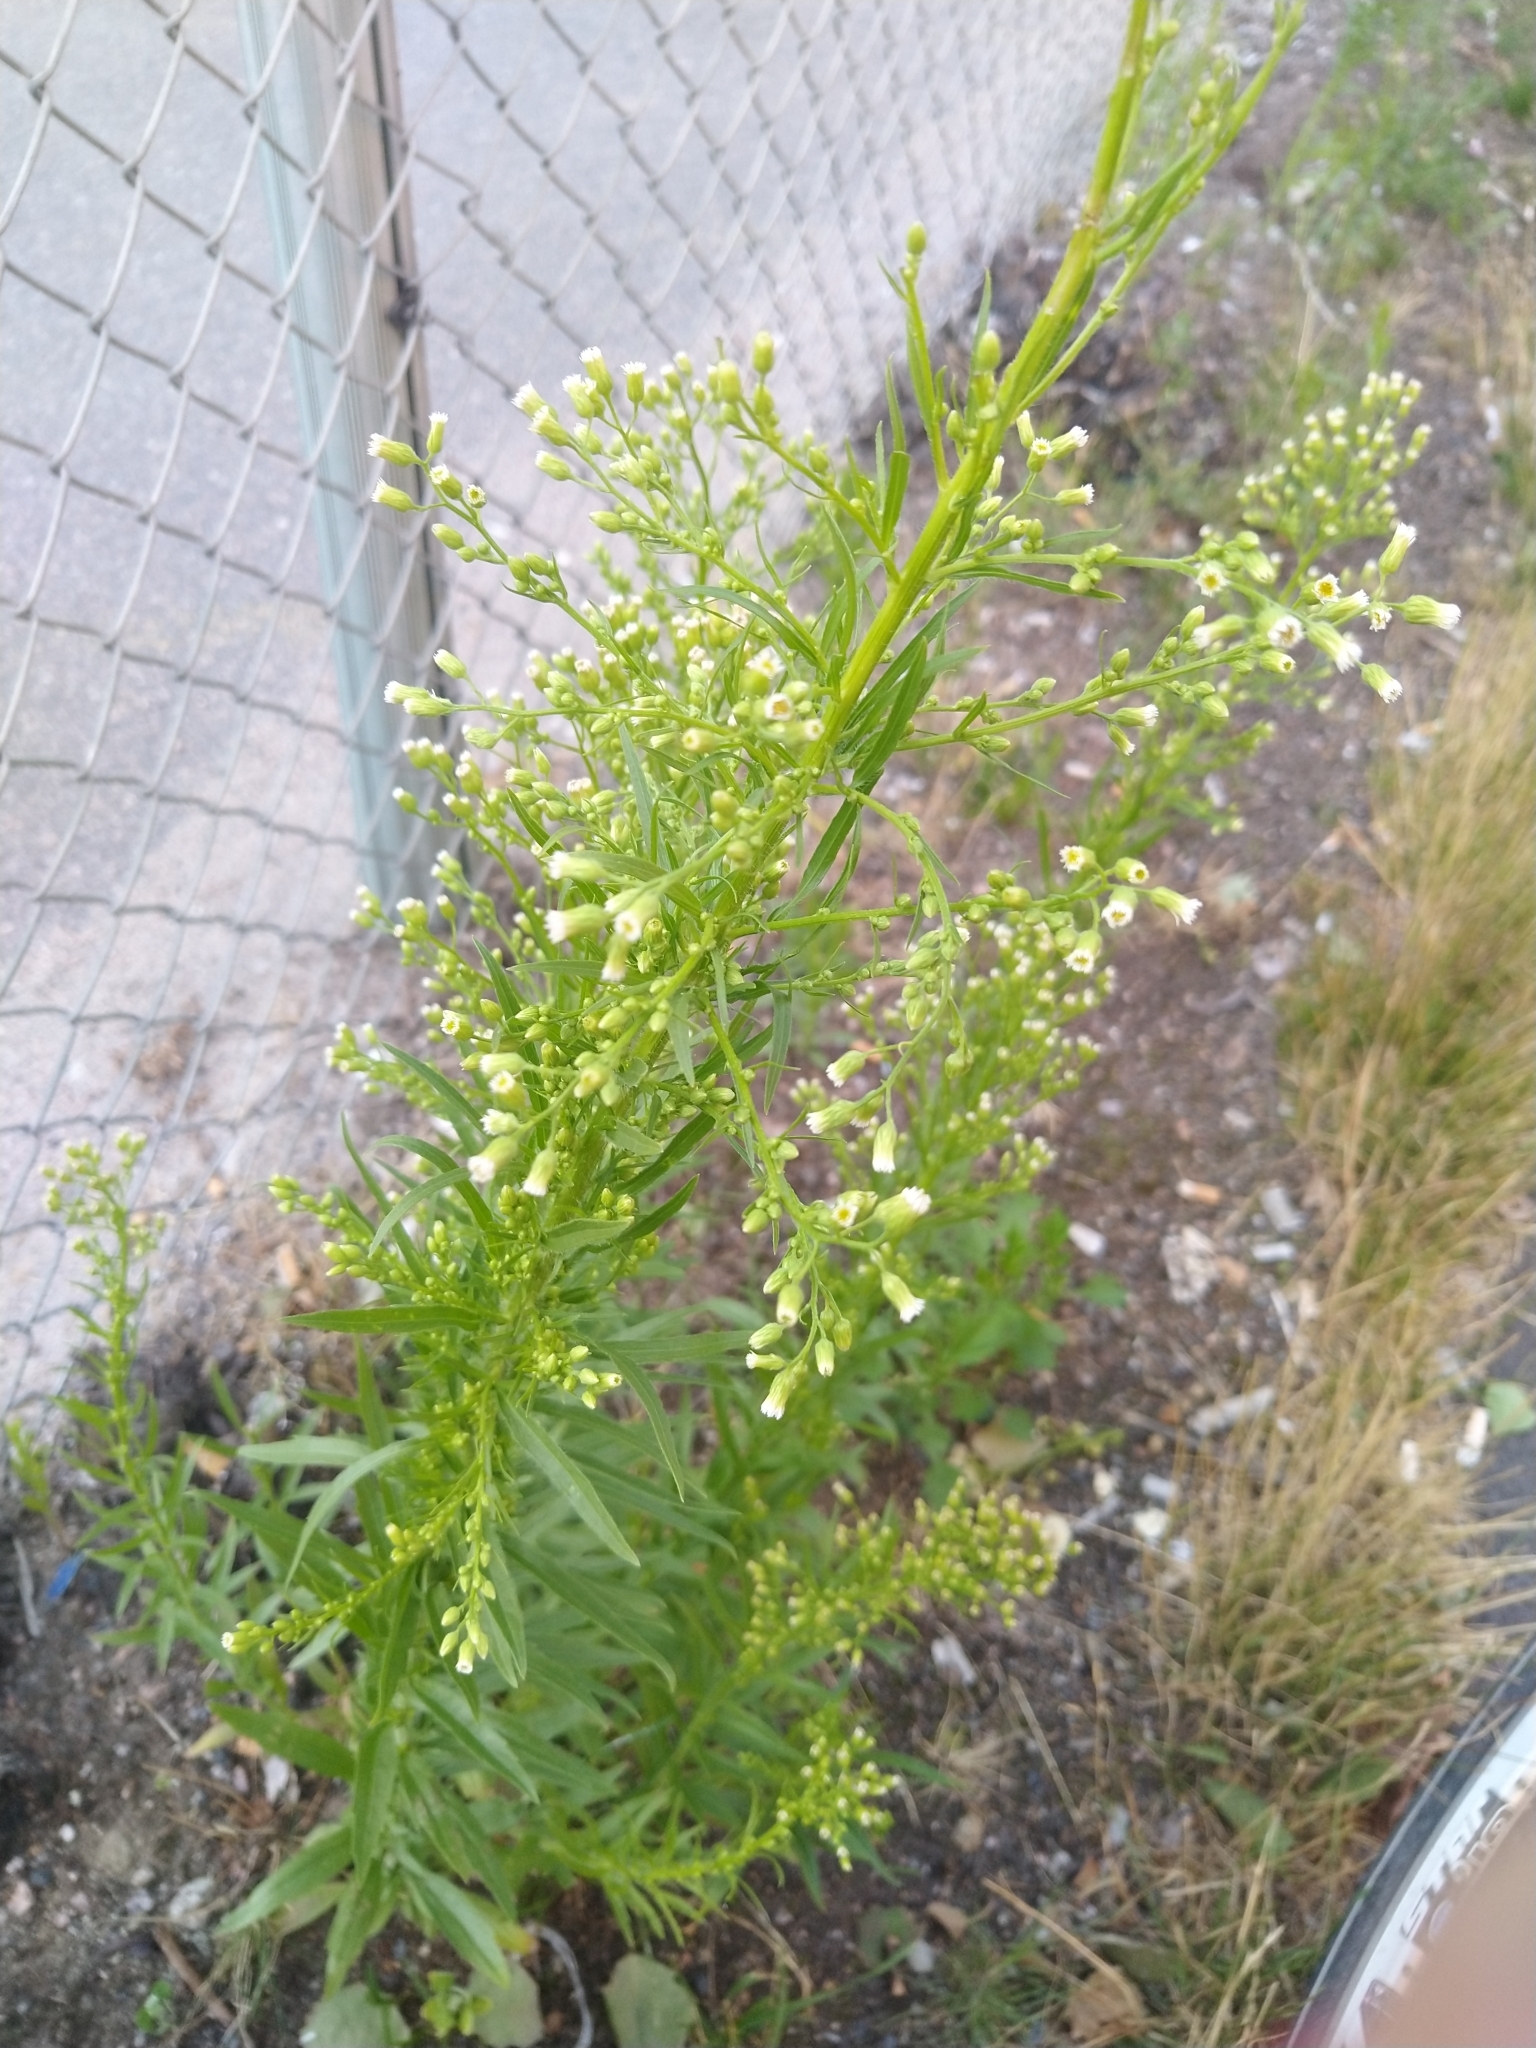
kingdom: Plantae
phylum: Tracheophyta
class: Magnoliopsida
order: Asterales
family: Asteraceae
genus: Erigeron
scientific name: Erigeron canadensis
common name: Canadian fleabane
